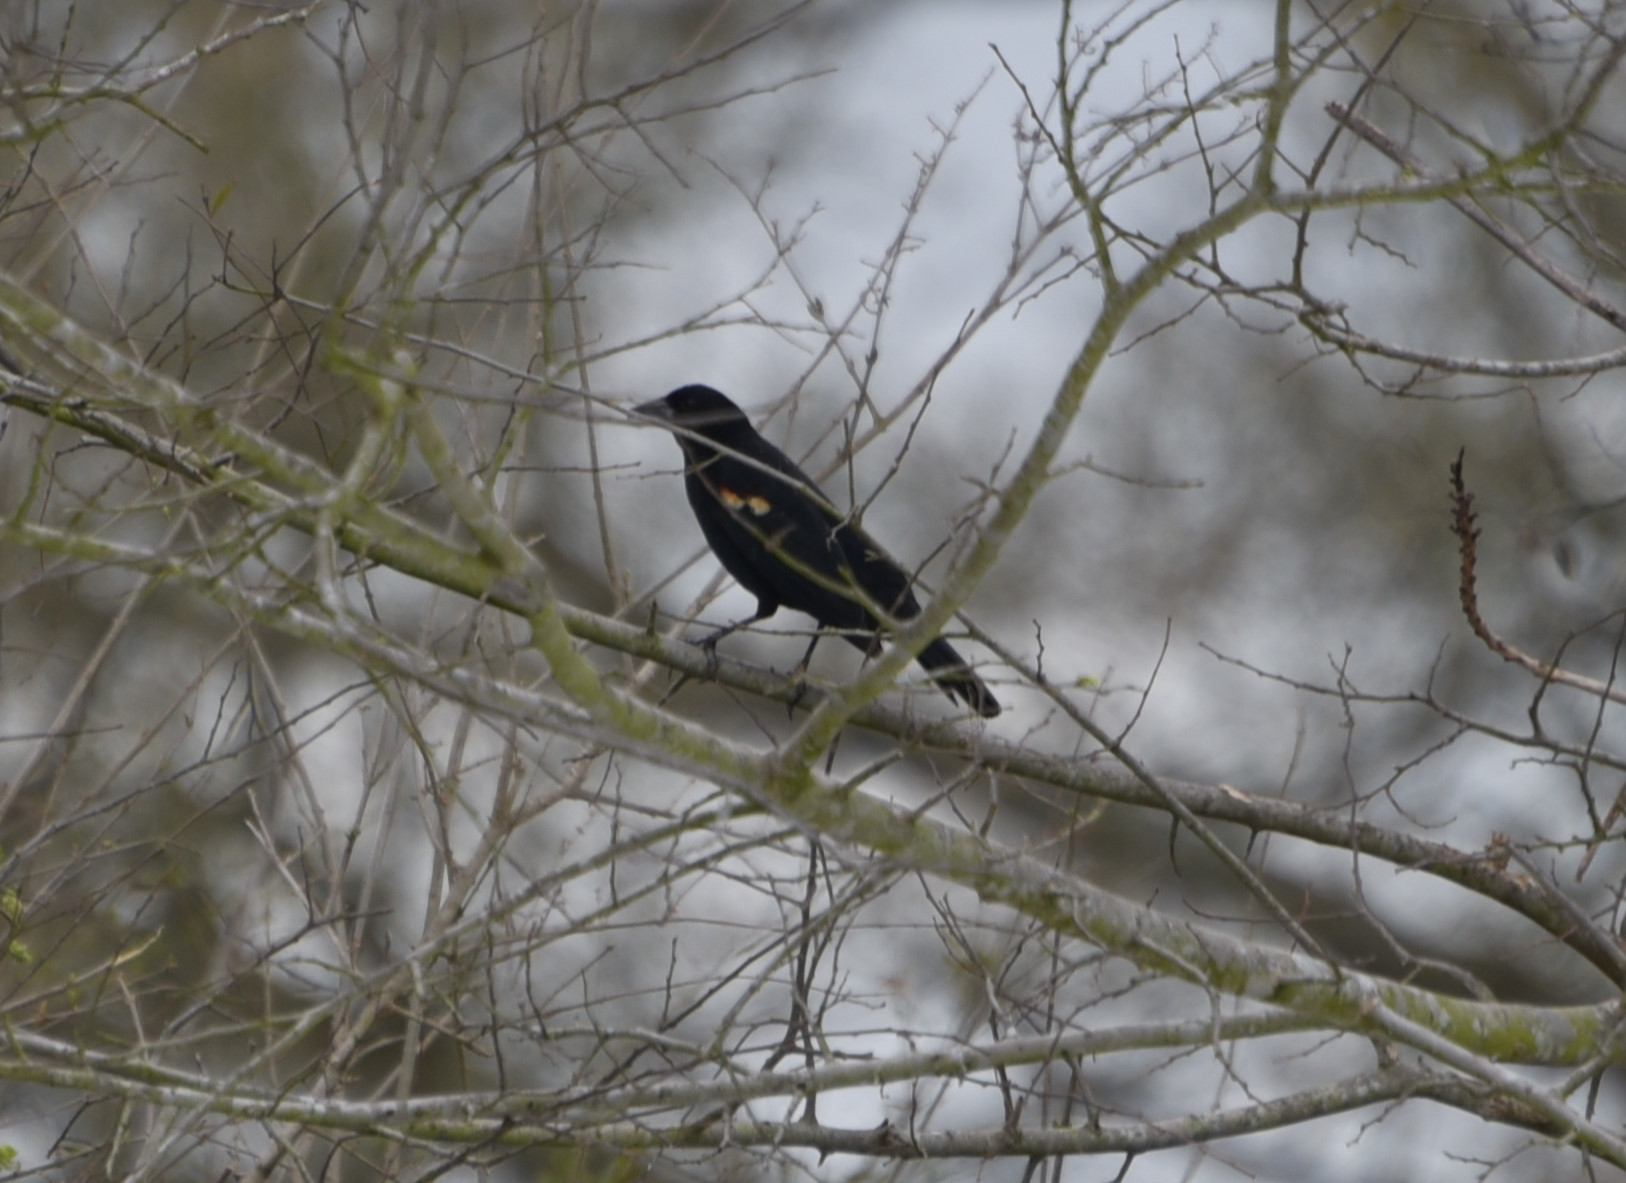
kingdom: Animalia
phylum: Chordata
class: Aves
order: Passeriformes
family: Icteridae
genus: Agelaius
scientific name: Agelaius phoeniceus
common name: Red-winged blackbird
